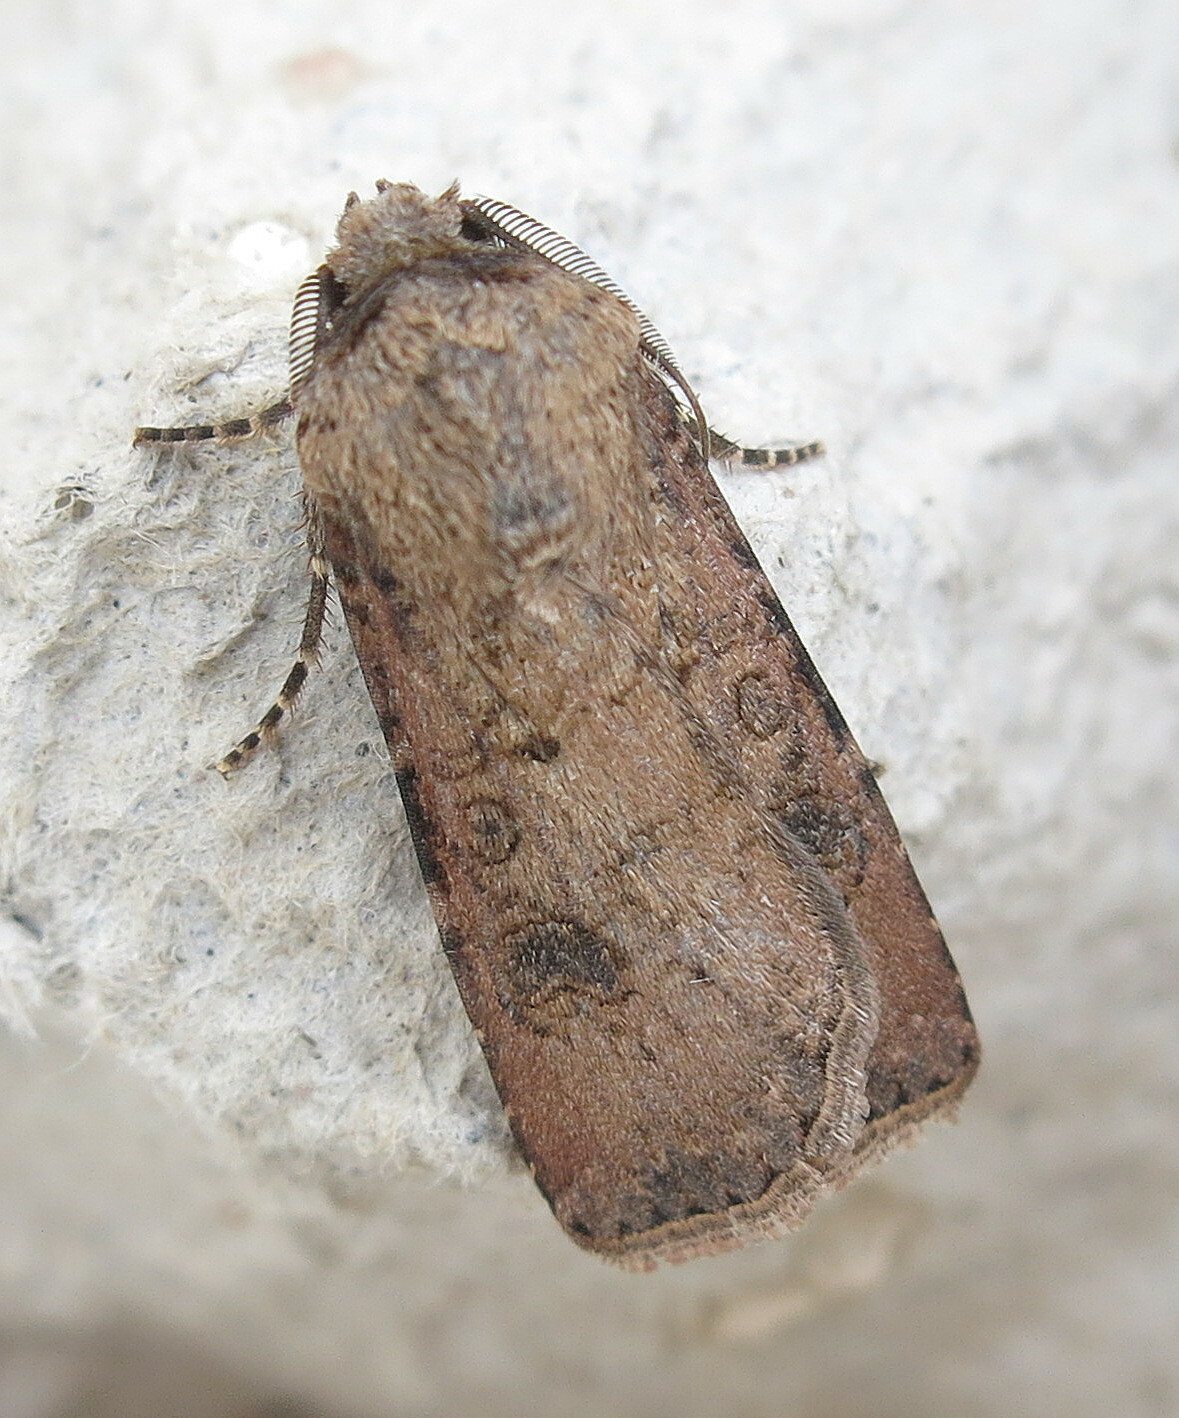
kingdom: Animalia
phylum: Arthropoda
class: Insecta
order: Lepidoptera
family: Noctuidae
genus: Agrotis
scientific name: Agrotis segetum
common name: Turnip moth
